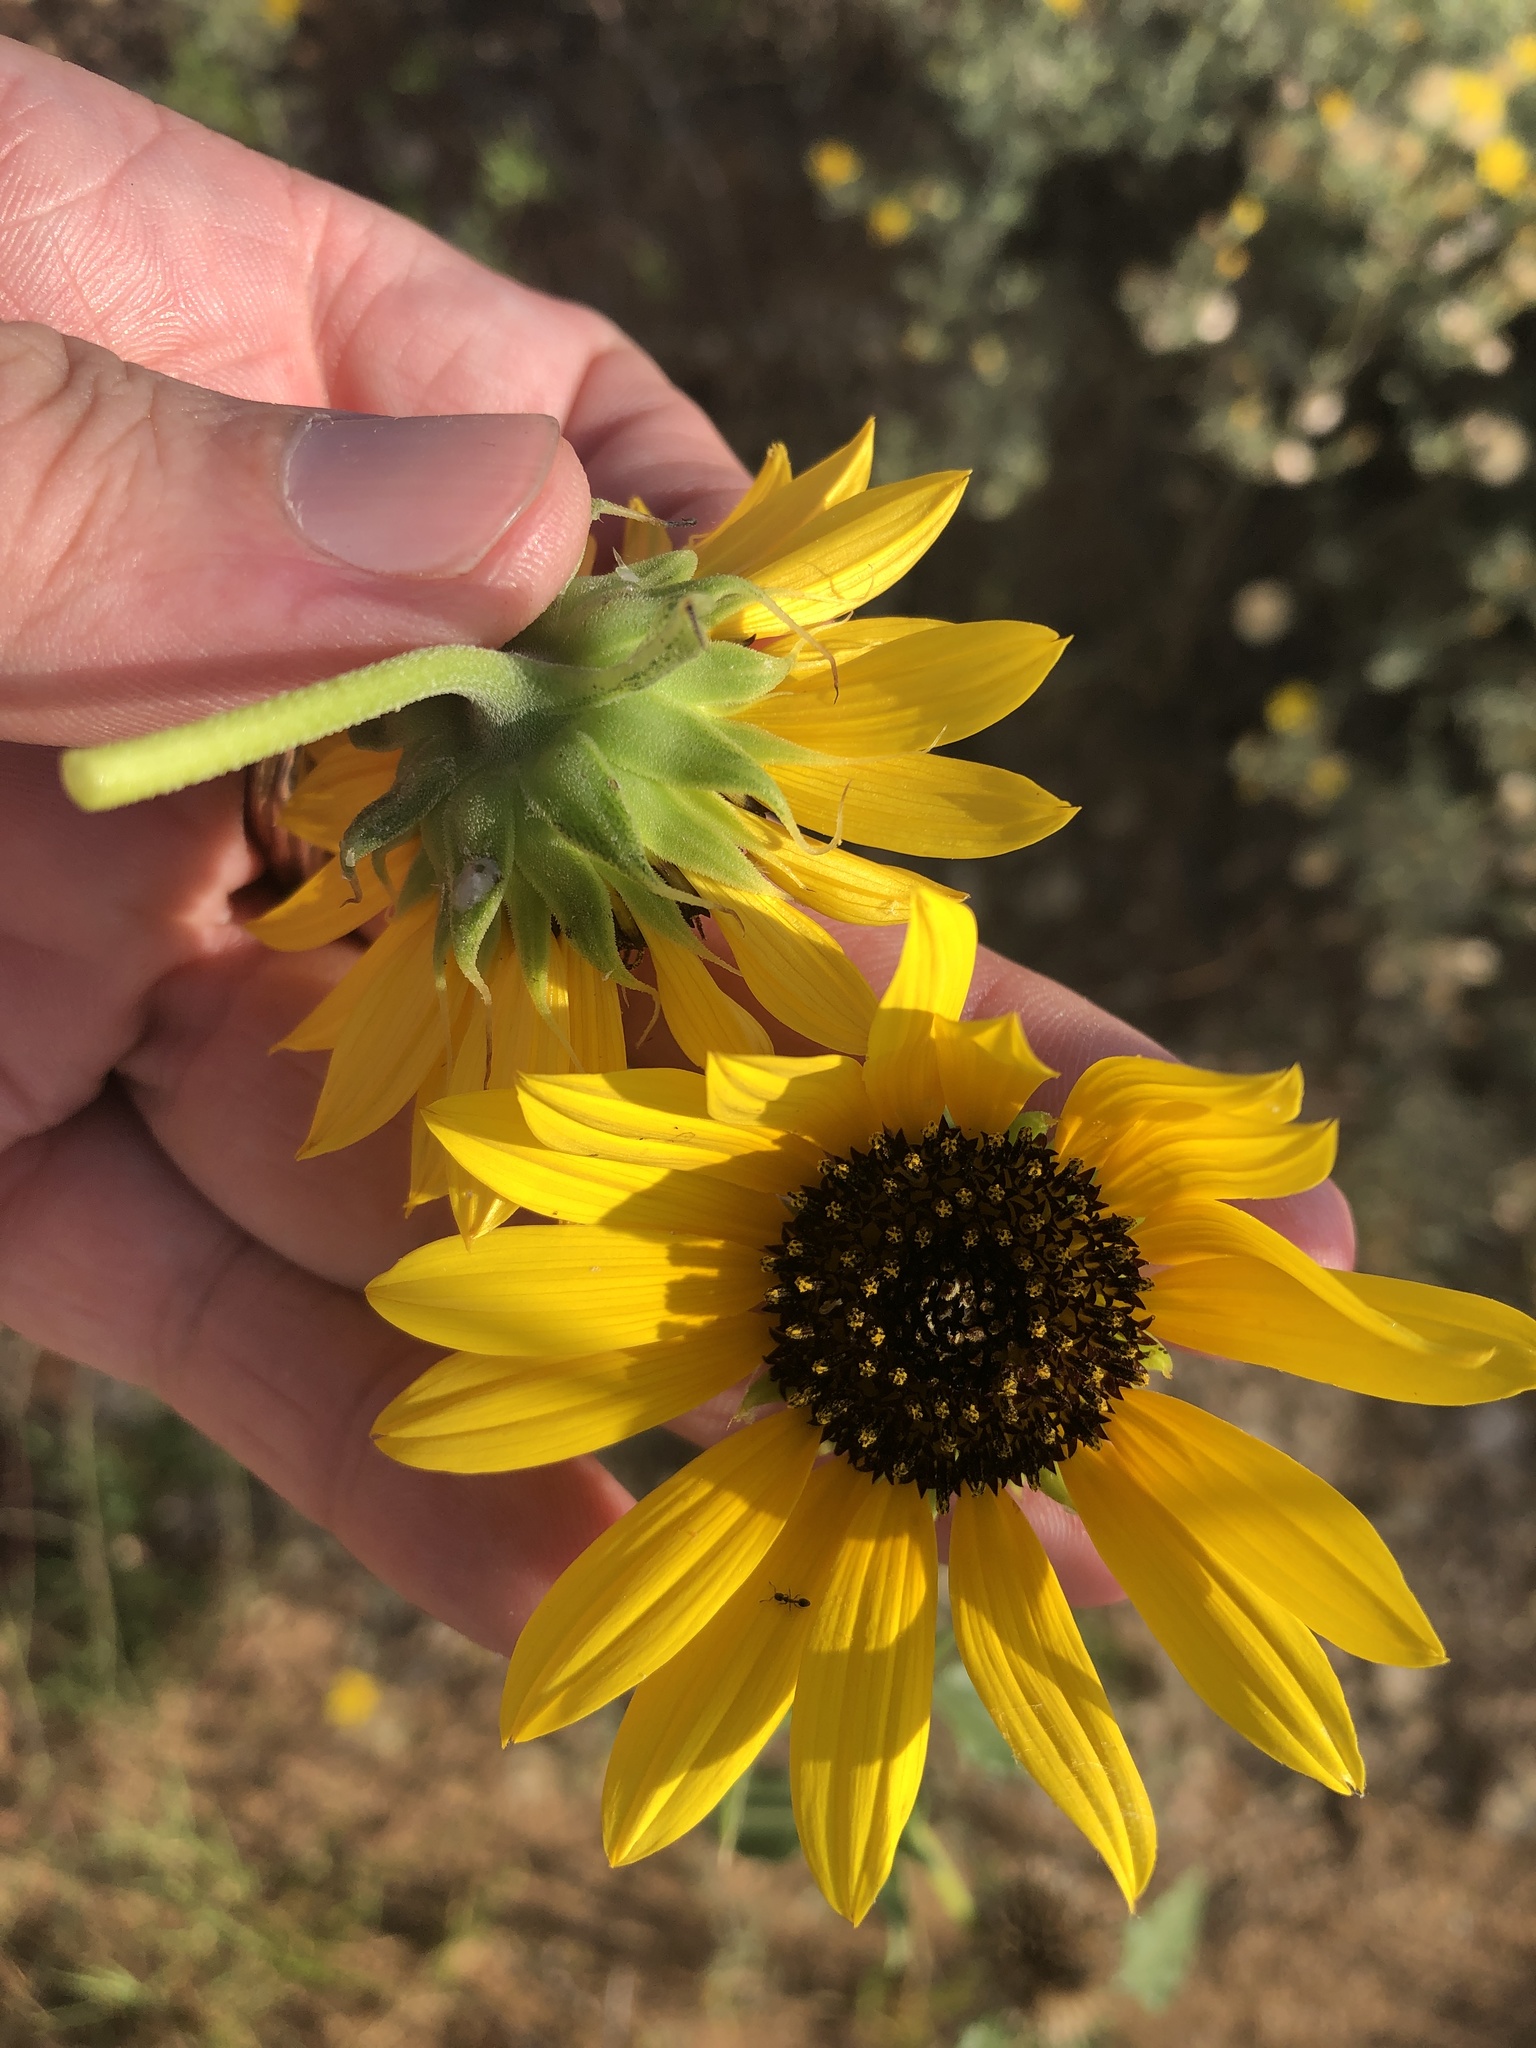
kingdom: Plantae
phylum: Tracheophyta
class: Magnoliopsida
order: Asterales
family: Asteraceae
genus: Helianthus
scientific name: Helianthus petiolaris
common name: Lesser sunflower
